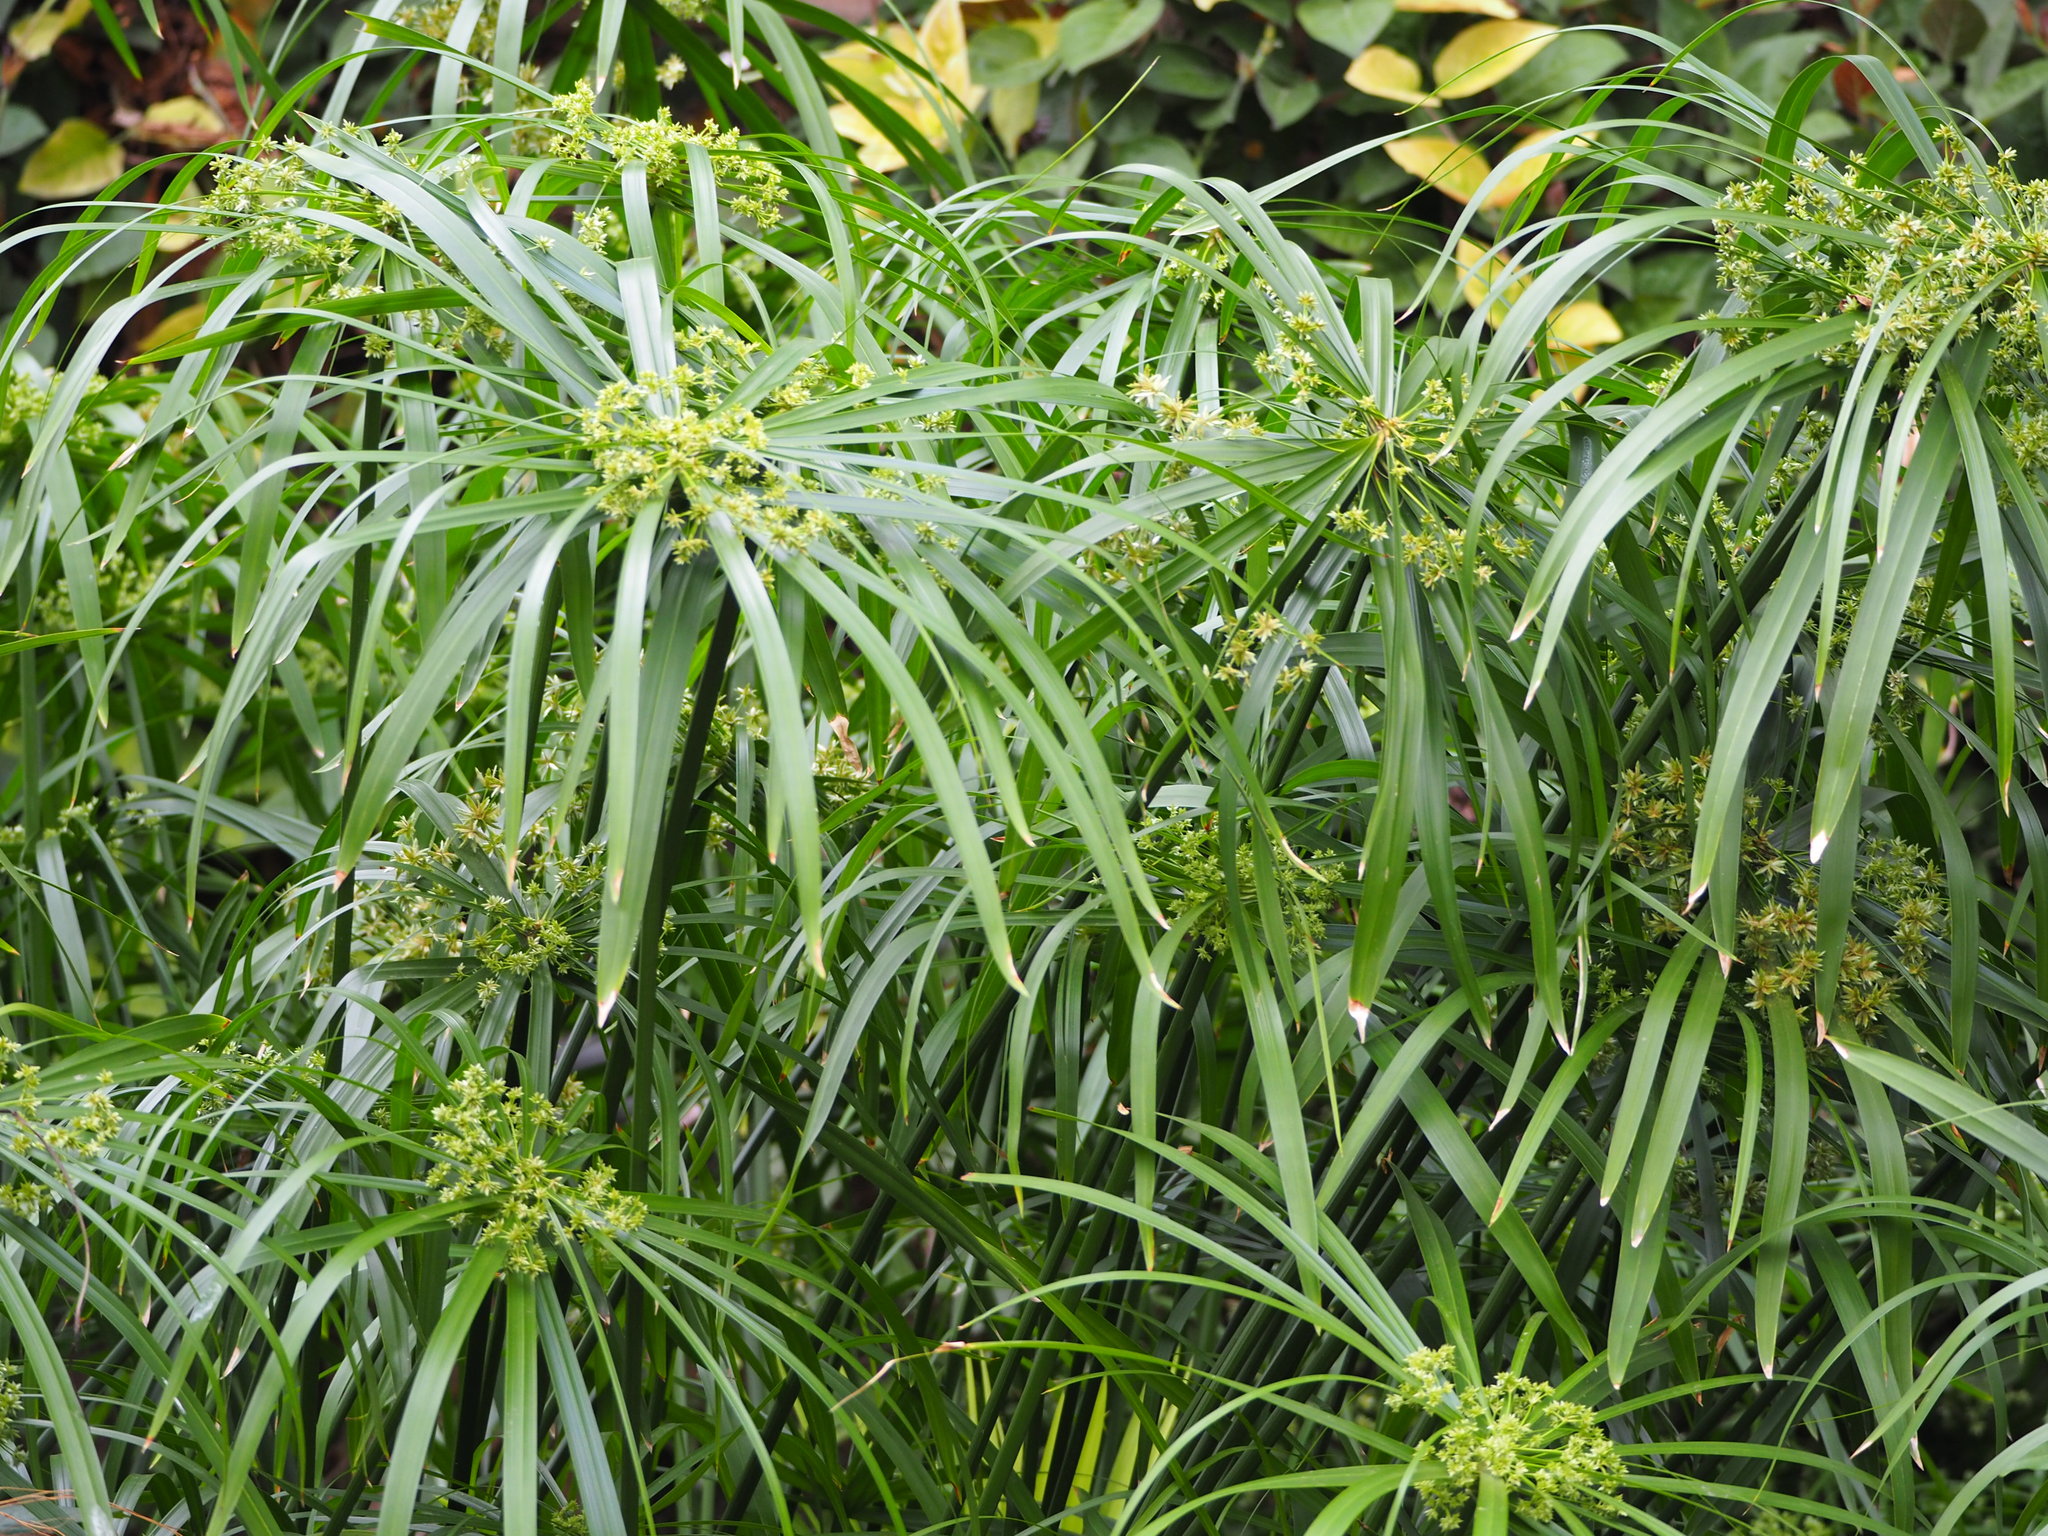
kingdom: Plantae
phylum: Tracheophyta
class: Liliopsida
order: Poales
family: Cyperaceae
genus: Cyperus
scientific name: Cyperus alternifolius
